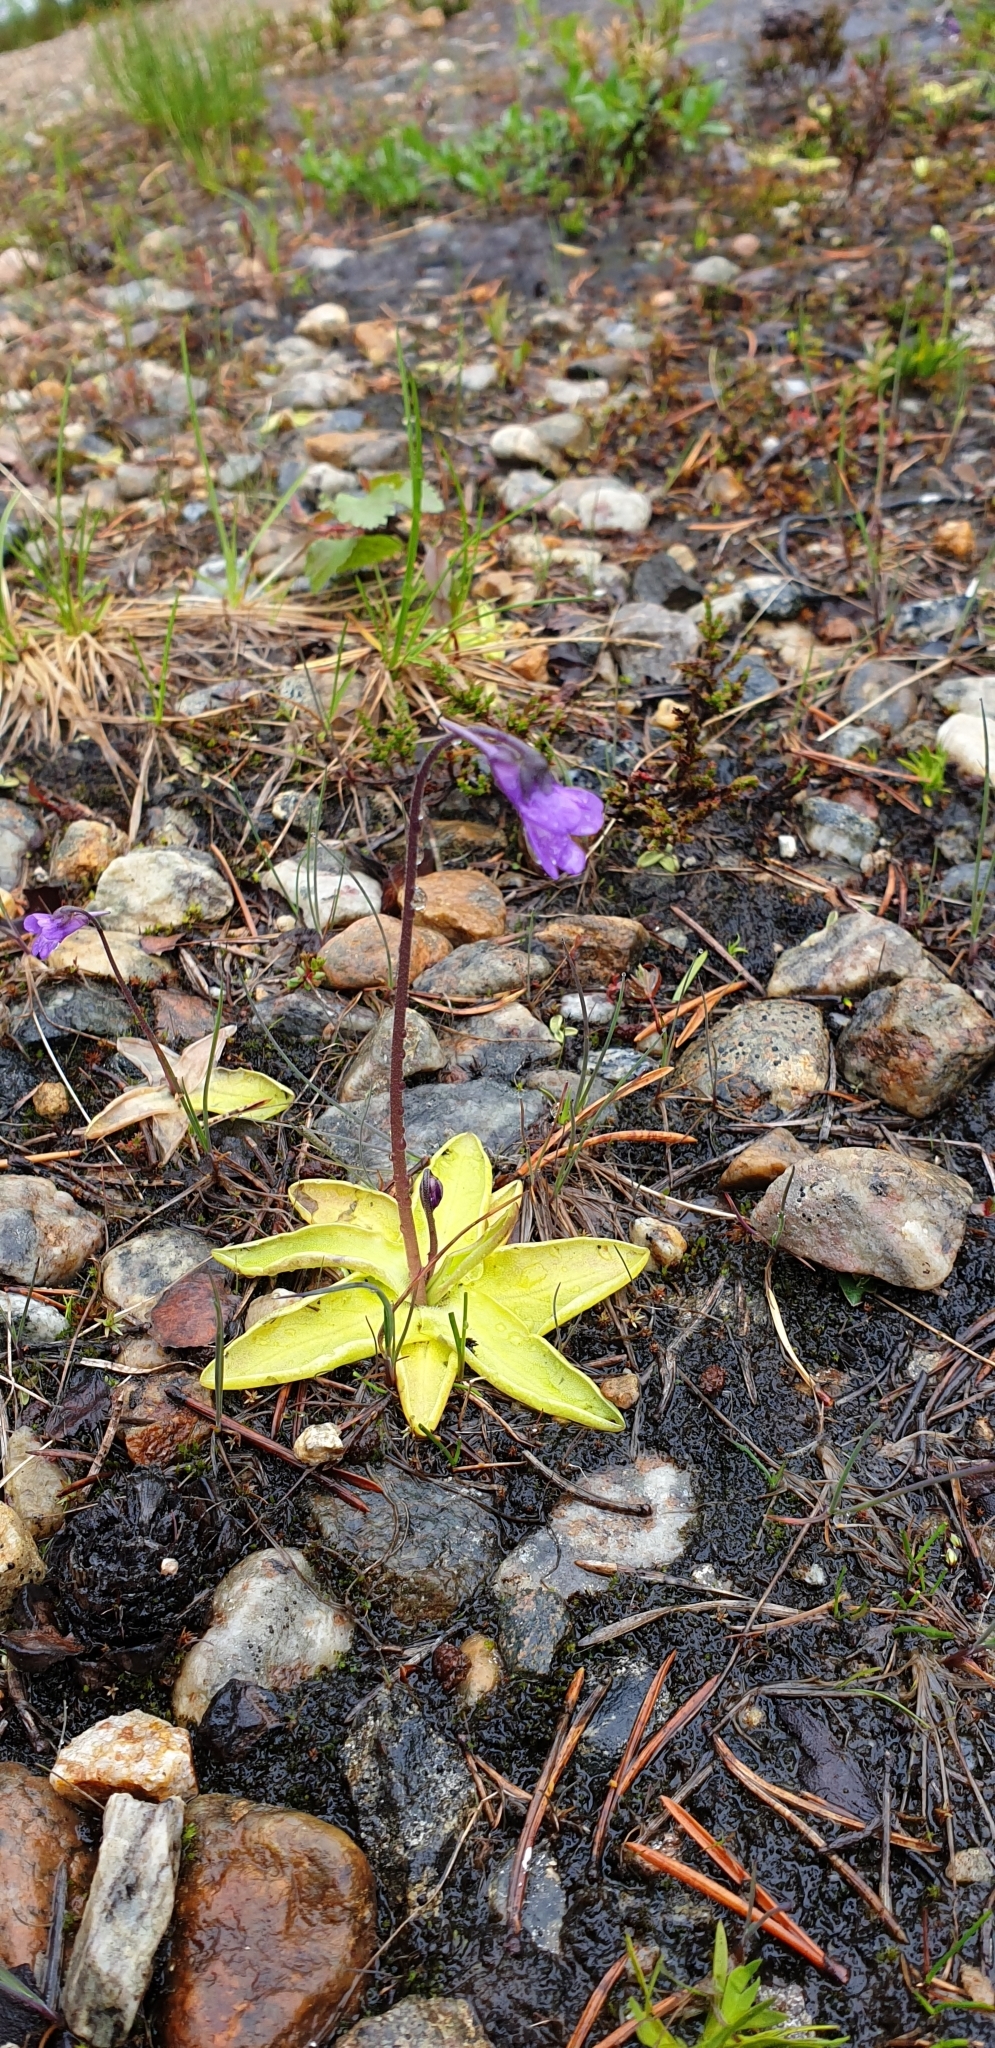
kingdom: Plantae
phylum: Tracheophyta
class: Magnoliopsida
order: Lamiales
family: Lentibulariaceae
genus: Pinguicula
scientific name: Pinguicula vulgaris
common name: Common butterwort
